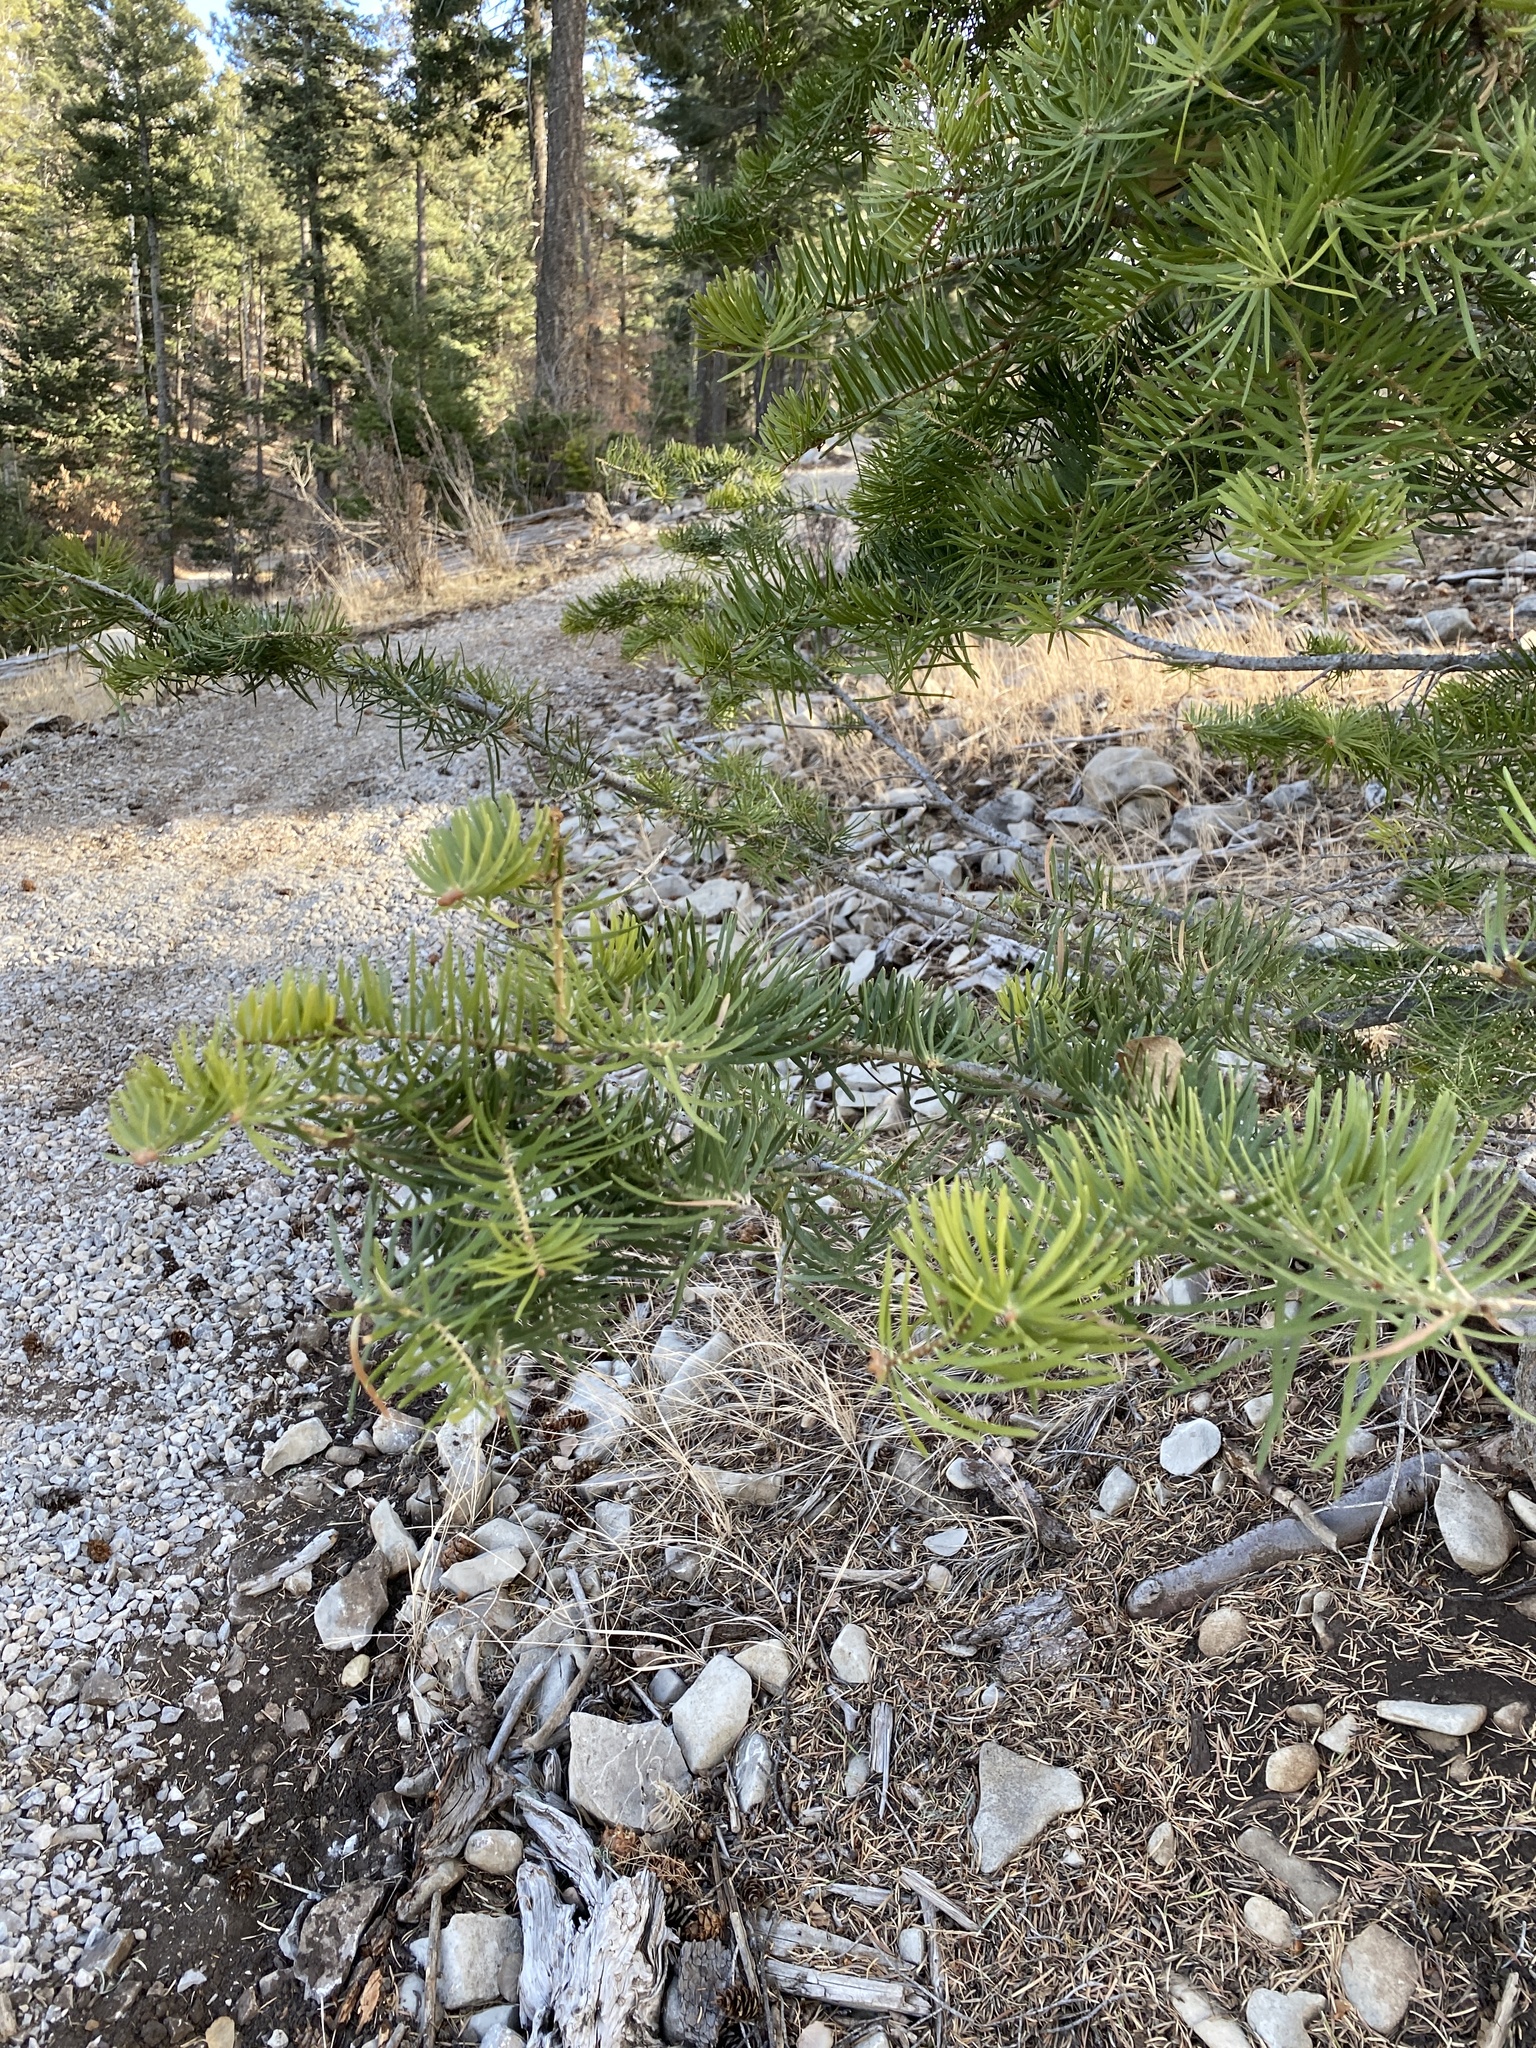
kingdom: Plantae
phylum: Tracheophyta
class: Pinopsida
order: Pinales
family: Pinaceae
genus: Abies
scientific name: Abies concolor
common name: Colorado fir
